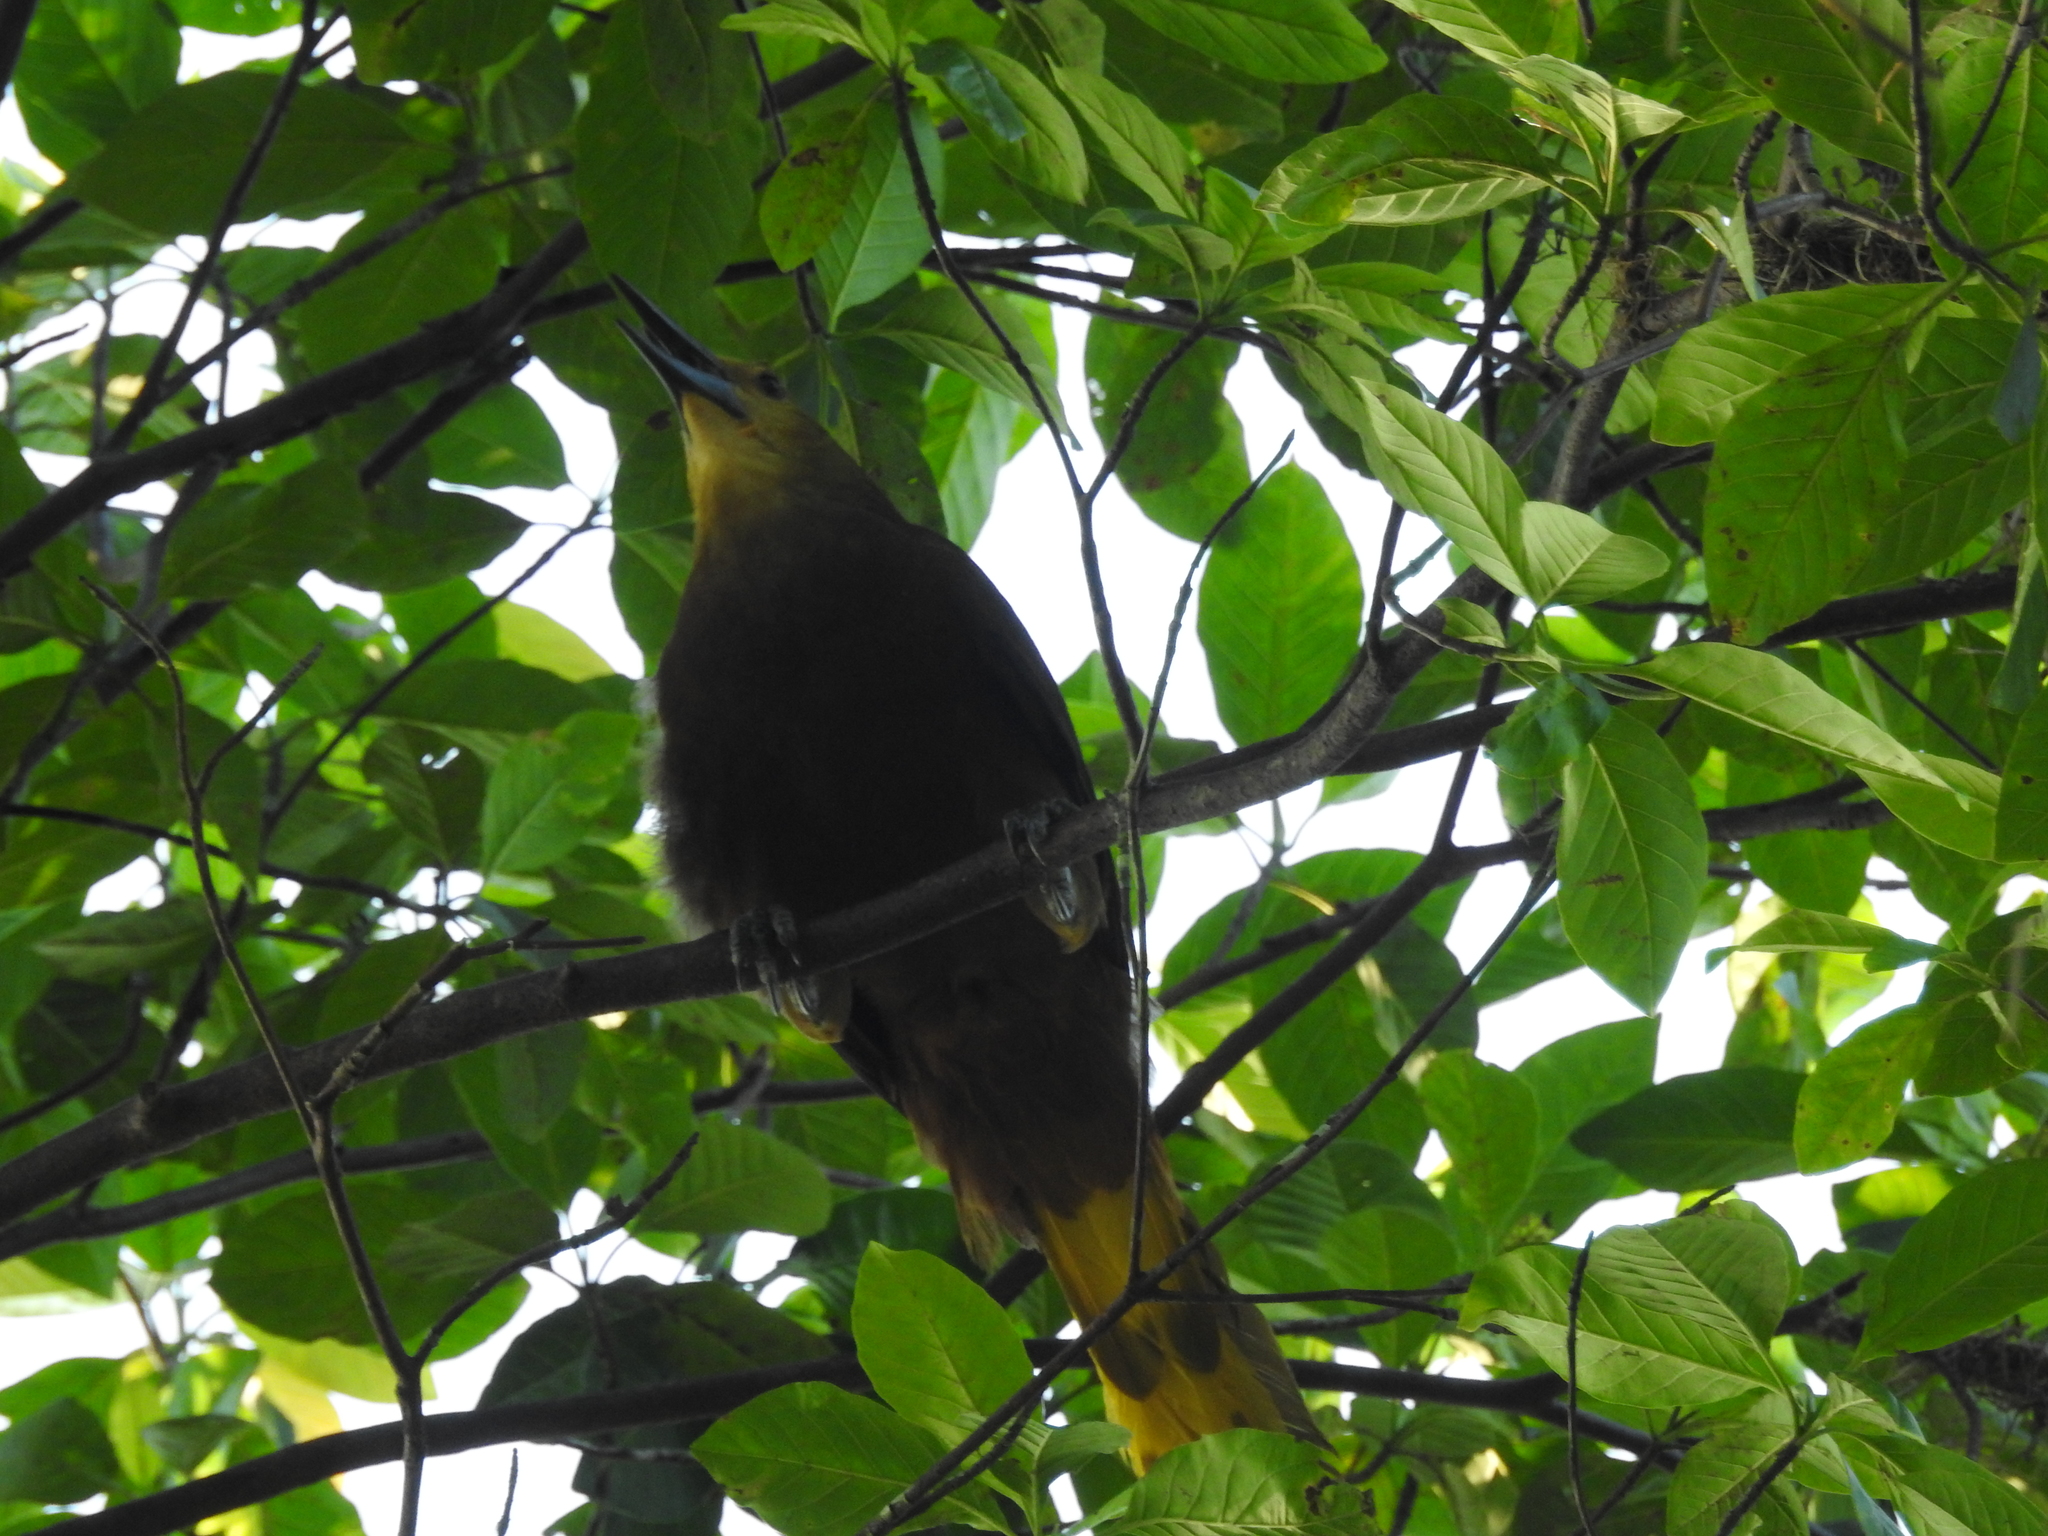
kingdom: Animalia
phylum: Chordata
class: Aves
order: Passeriformes
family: Icteridae
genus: Psarocolius
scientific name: Psarocolius angustifrons
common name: Russet-backed oropendola
